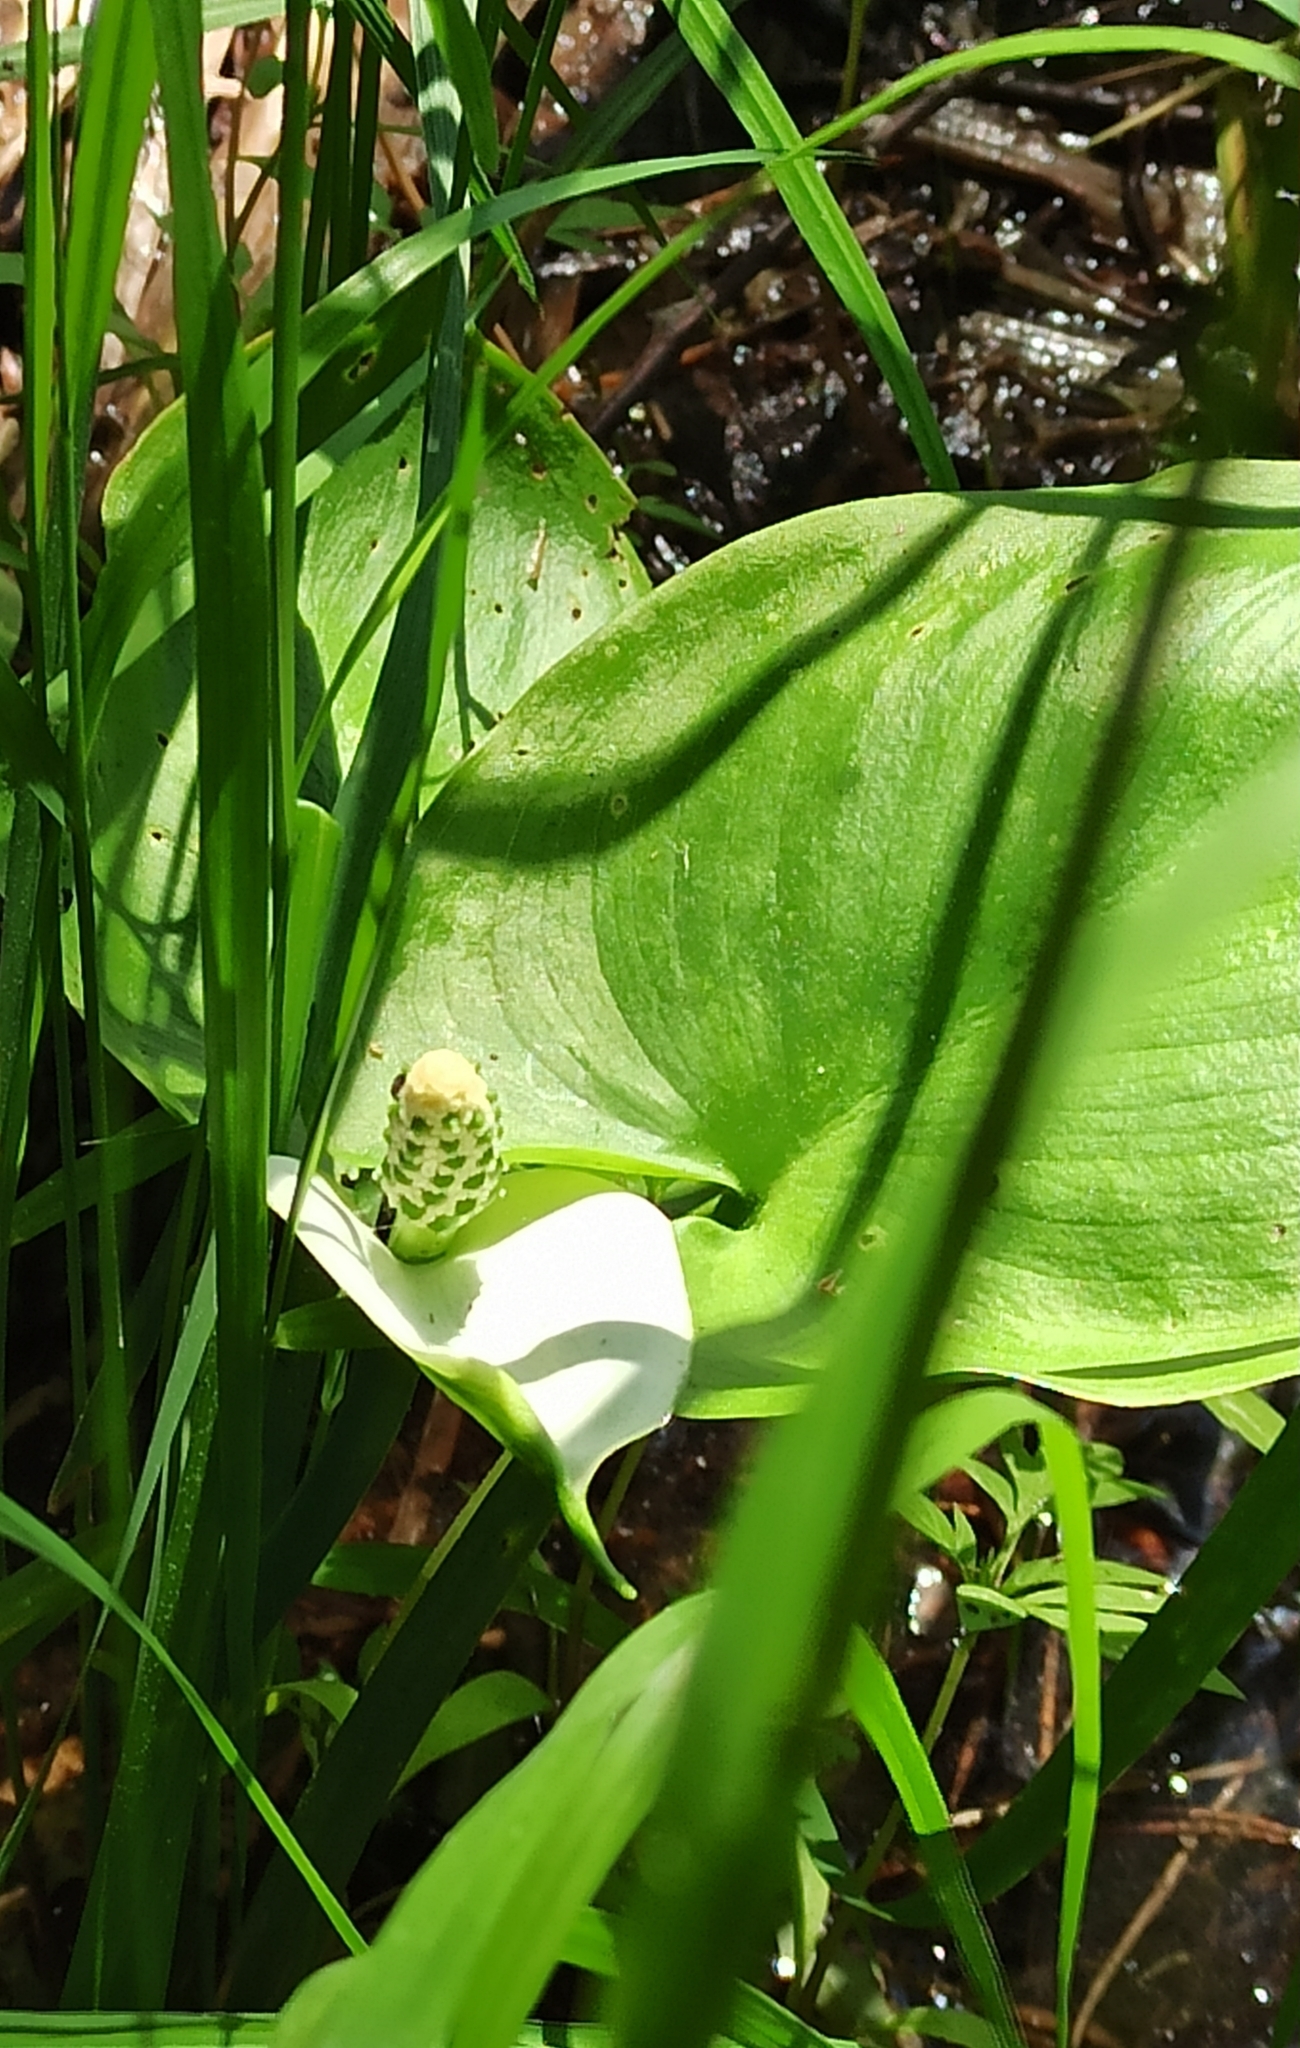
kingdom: Plantae
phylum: Tracheophyta
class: Liliopsida
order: Alismatales
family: Araceae
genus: Calla
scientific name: Calla palustris
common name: Bog arum
